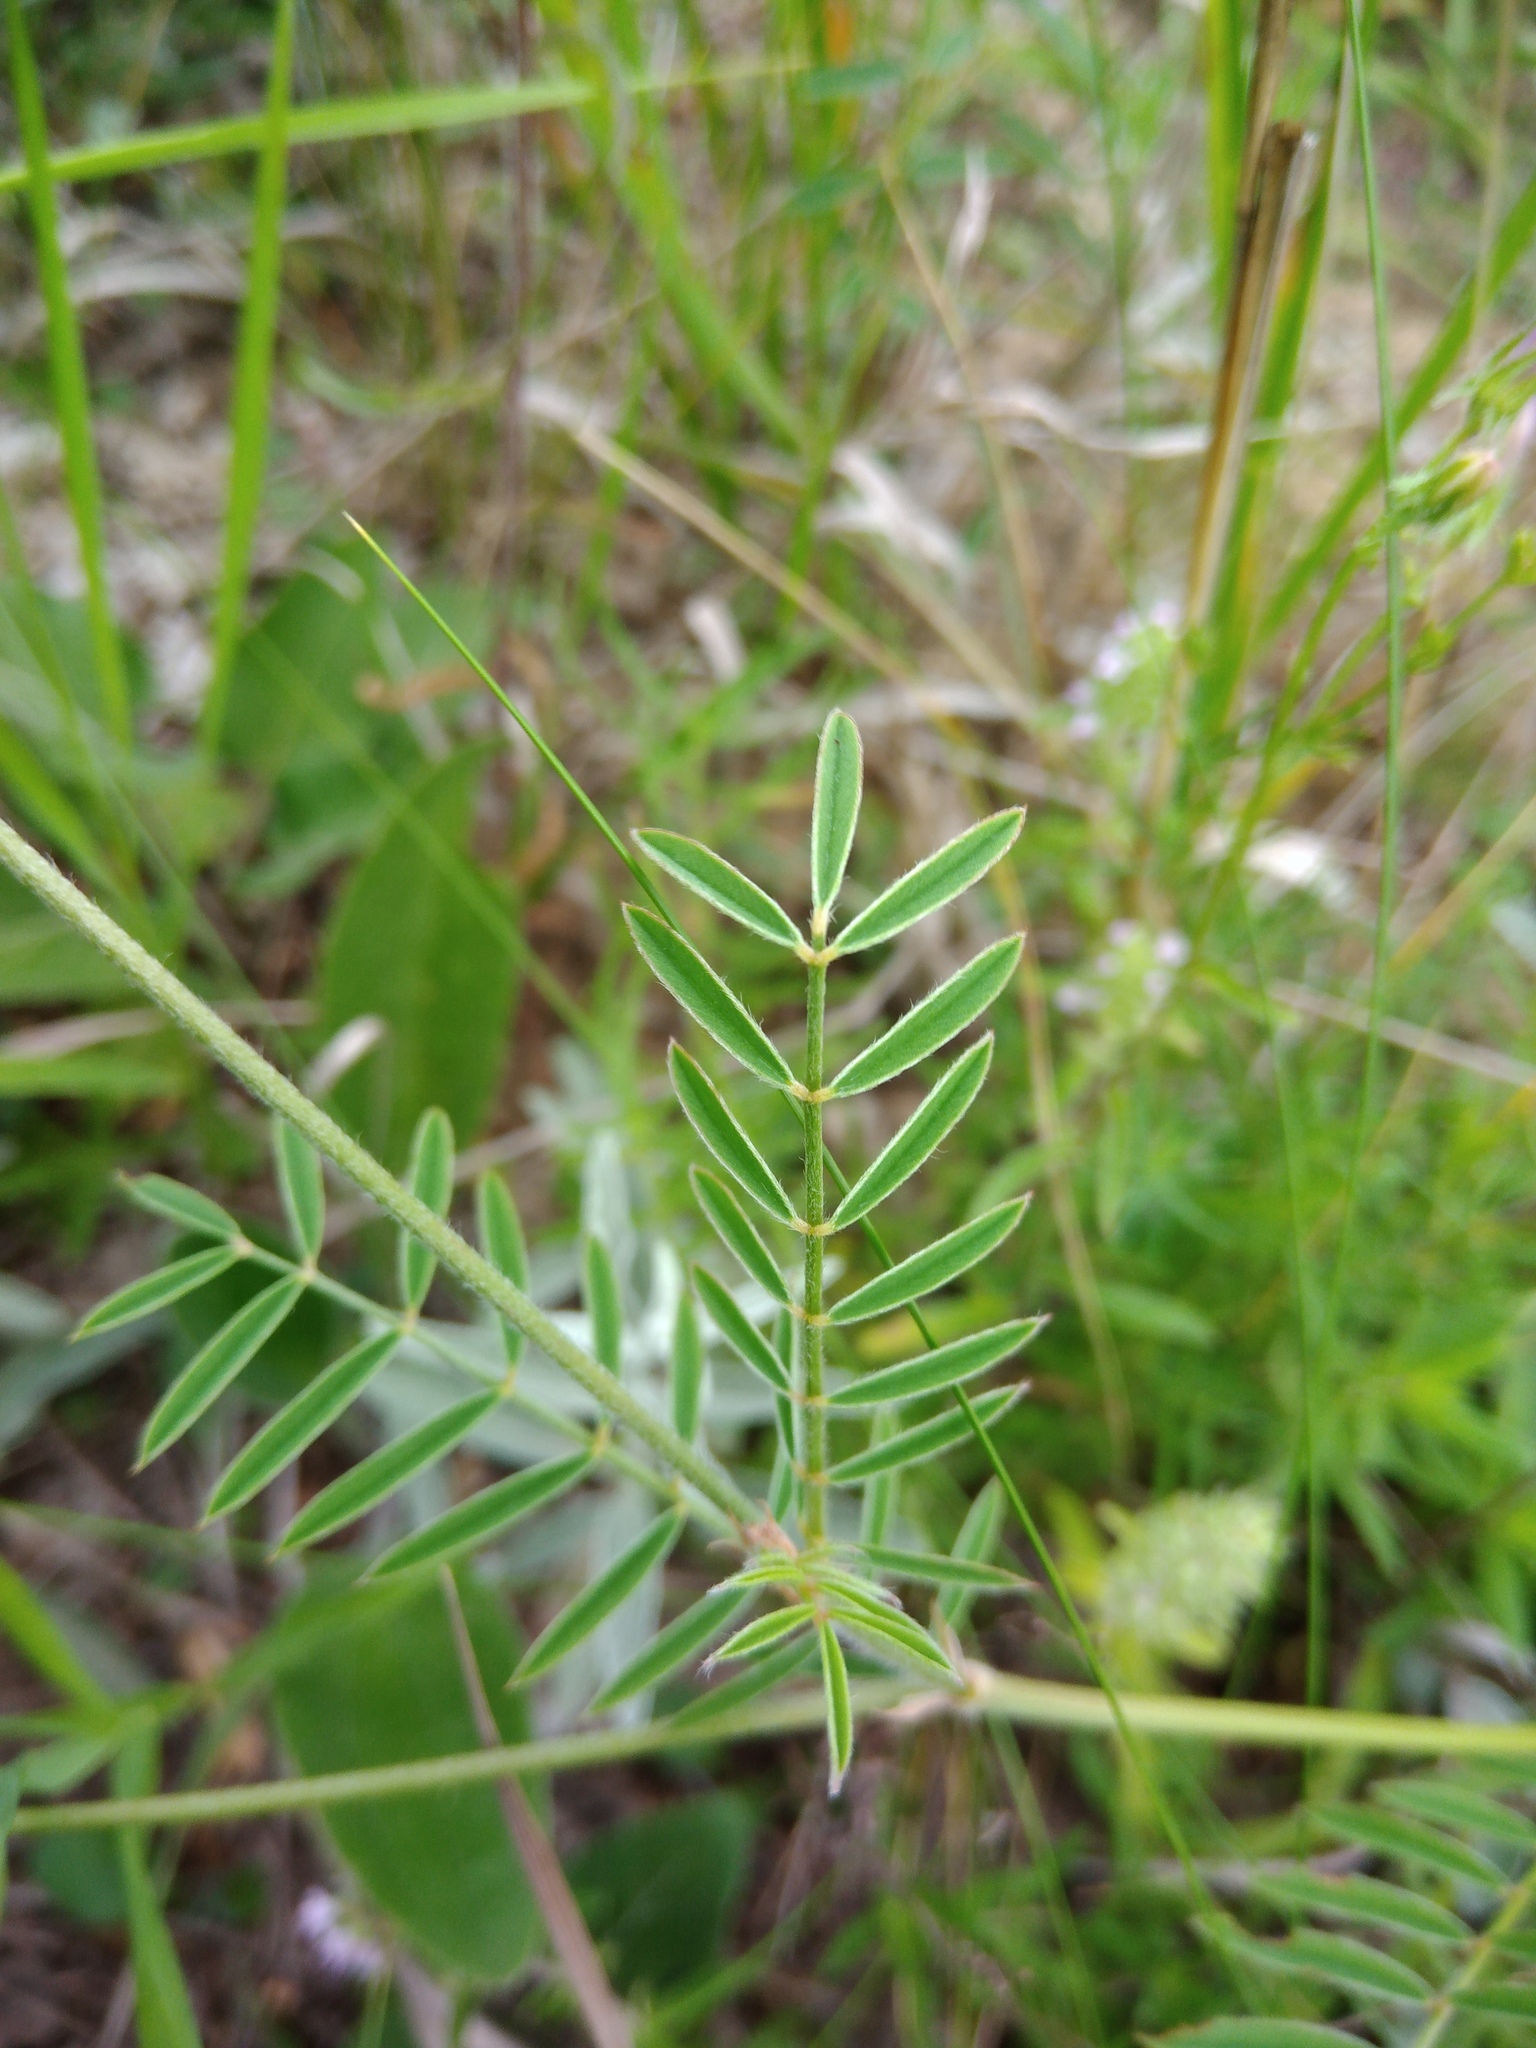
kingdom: Plantae
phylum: Tracheophyta
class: Magnoliopsida
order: Fabales
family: Fabaceae
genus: Onobrychis
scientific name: Onobrychis arenaria
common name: Sand esparcet
